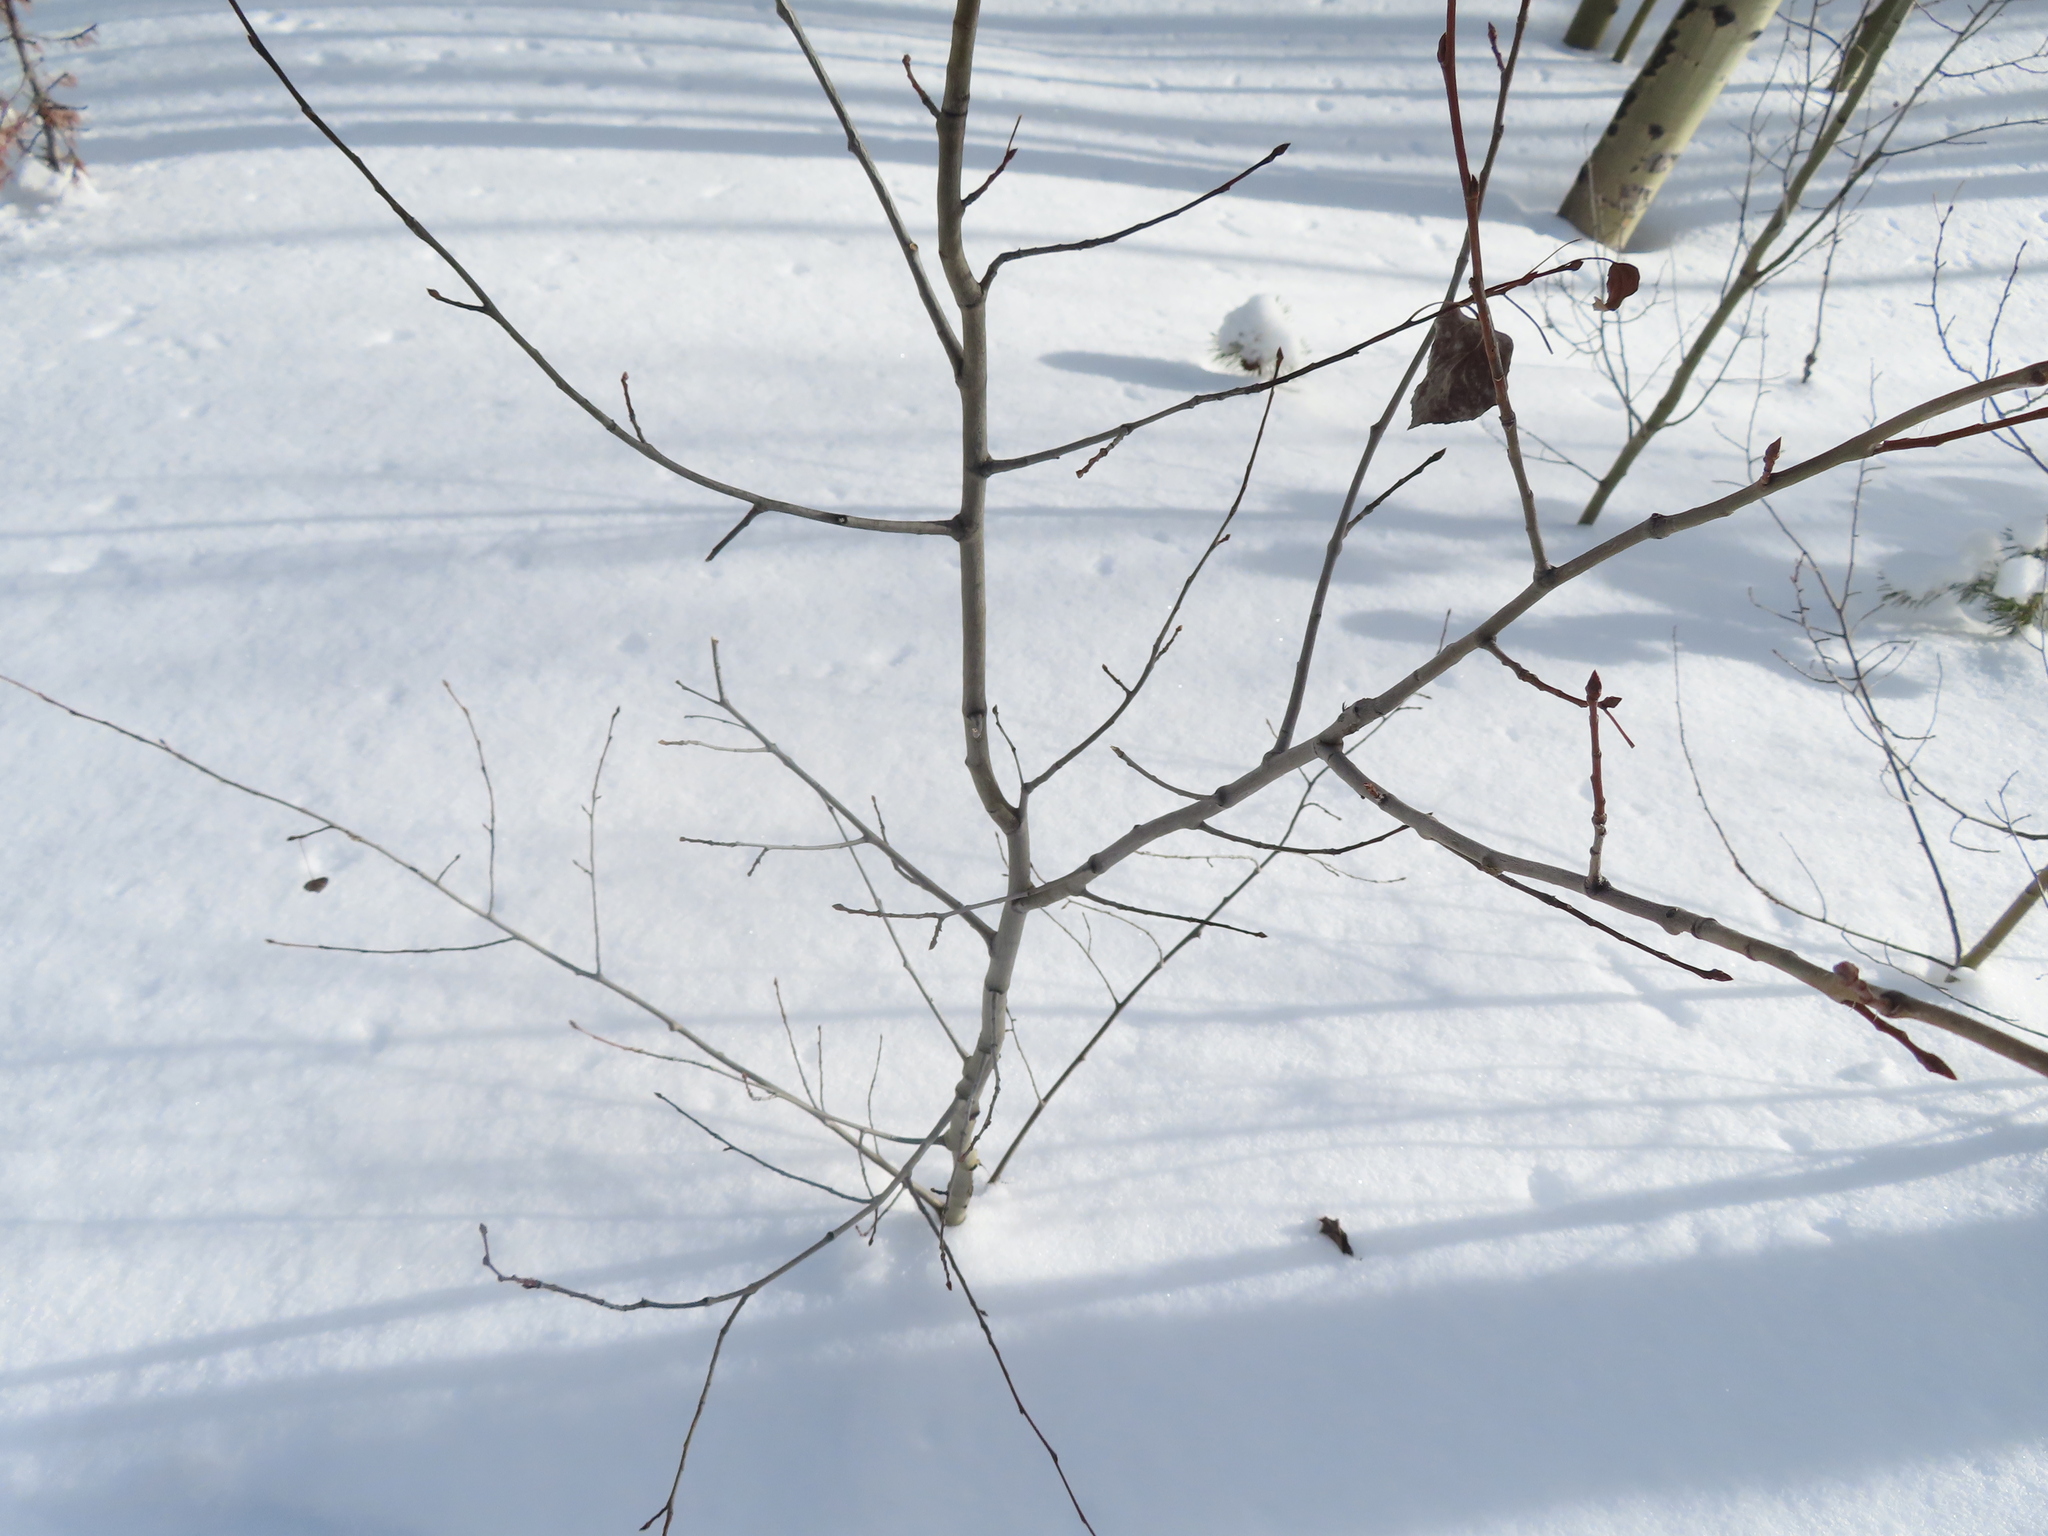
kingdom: Plantae
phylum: Tracheophyta
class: Magnoliopsida
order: Malpighiales
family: Salicaceae
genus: Populus
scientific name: Populus tremuloides
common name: Quaking aspen
